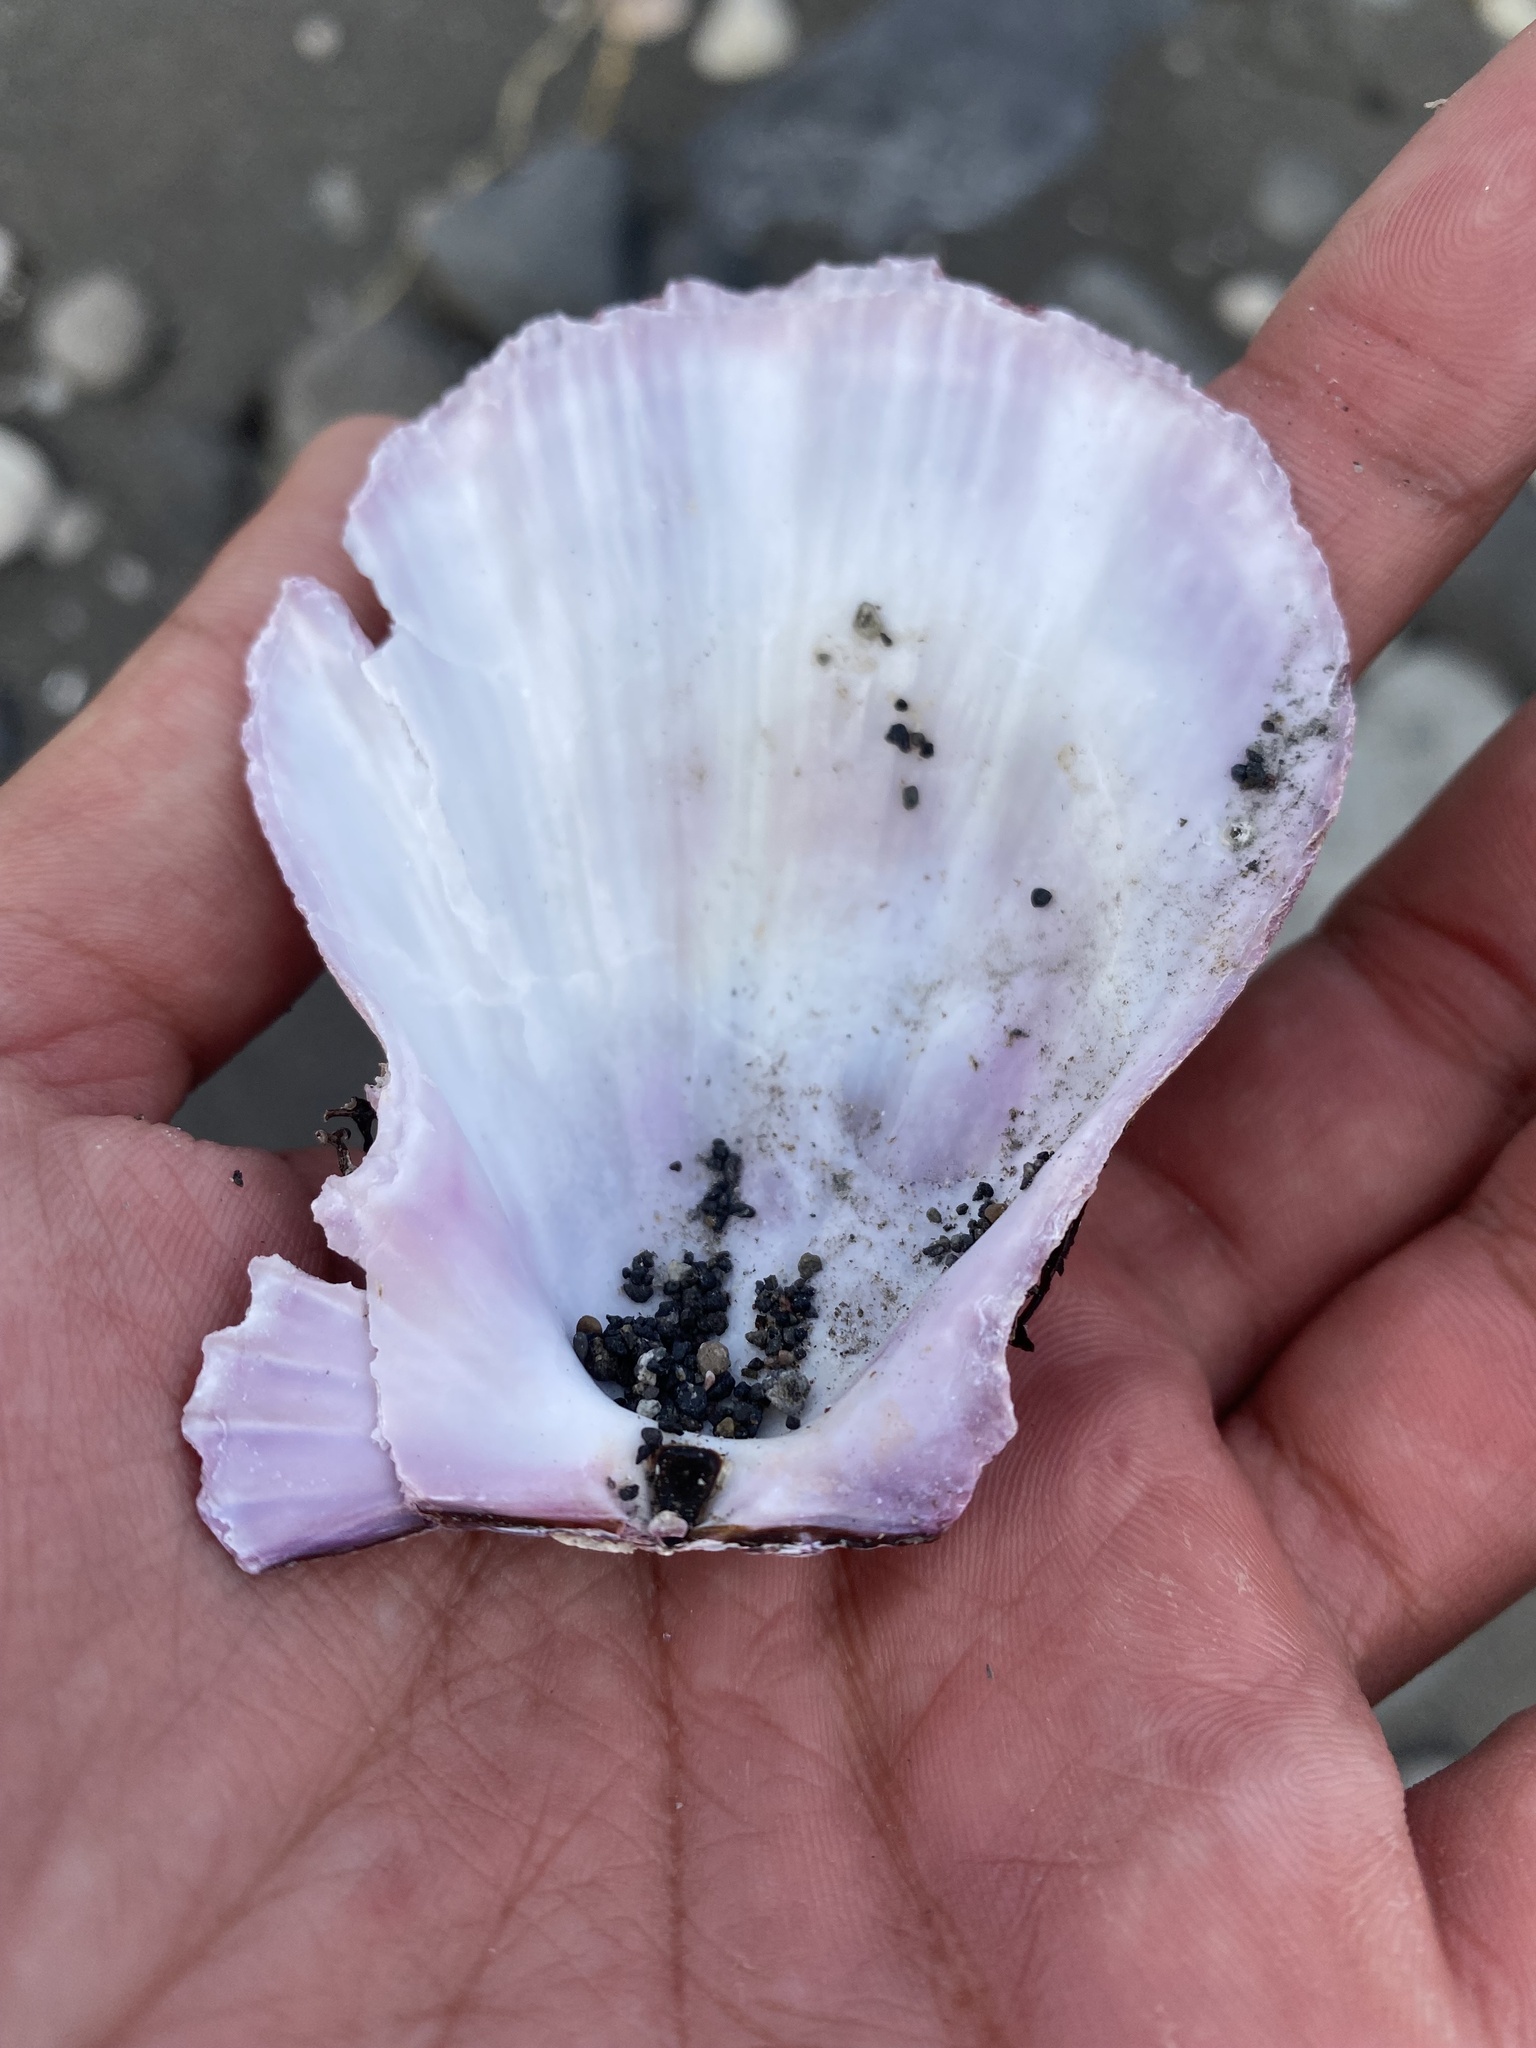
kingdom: Animalia
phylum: Mollusca
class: Bivalvia
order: Pectinida
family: Pectinidae
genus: Swiftopecten
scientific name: Swiftopecten swiftii
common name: Swift's scallop
